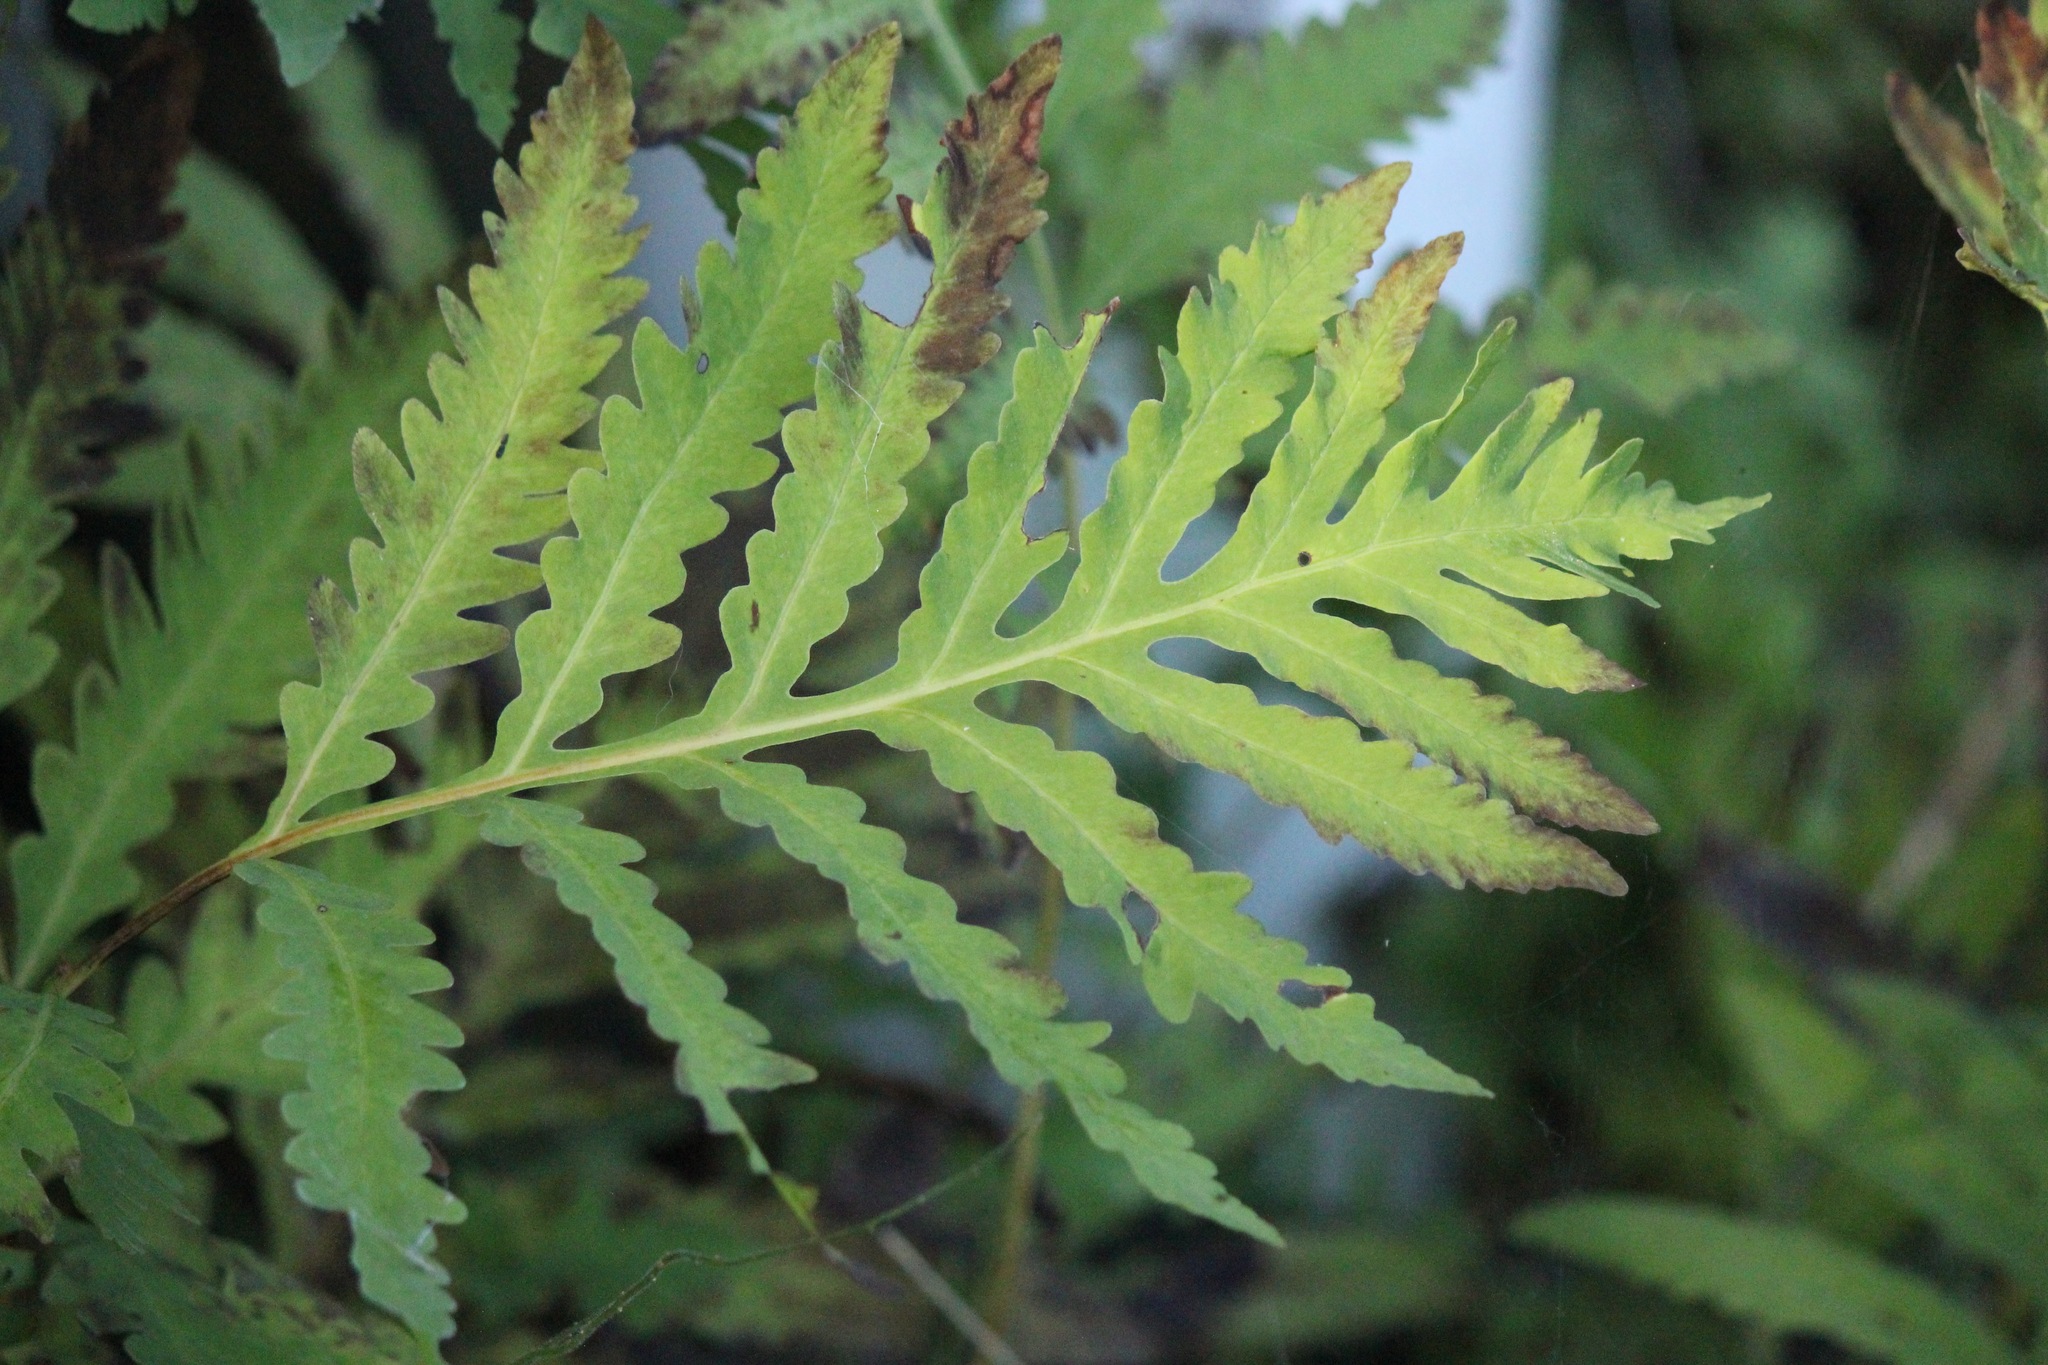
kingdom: Plantae
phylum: Tracheophyta
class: Polypodiopsida
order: Polypodiales
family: Onocleaceae
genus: Onoclea
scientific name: Onoclea sensibilis
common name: Sensitive fern
